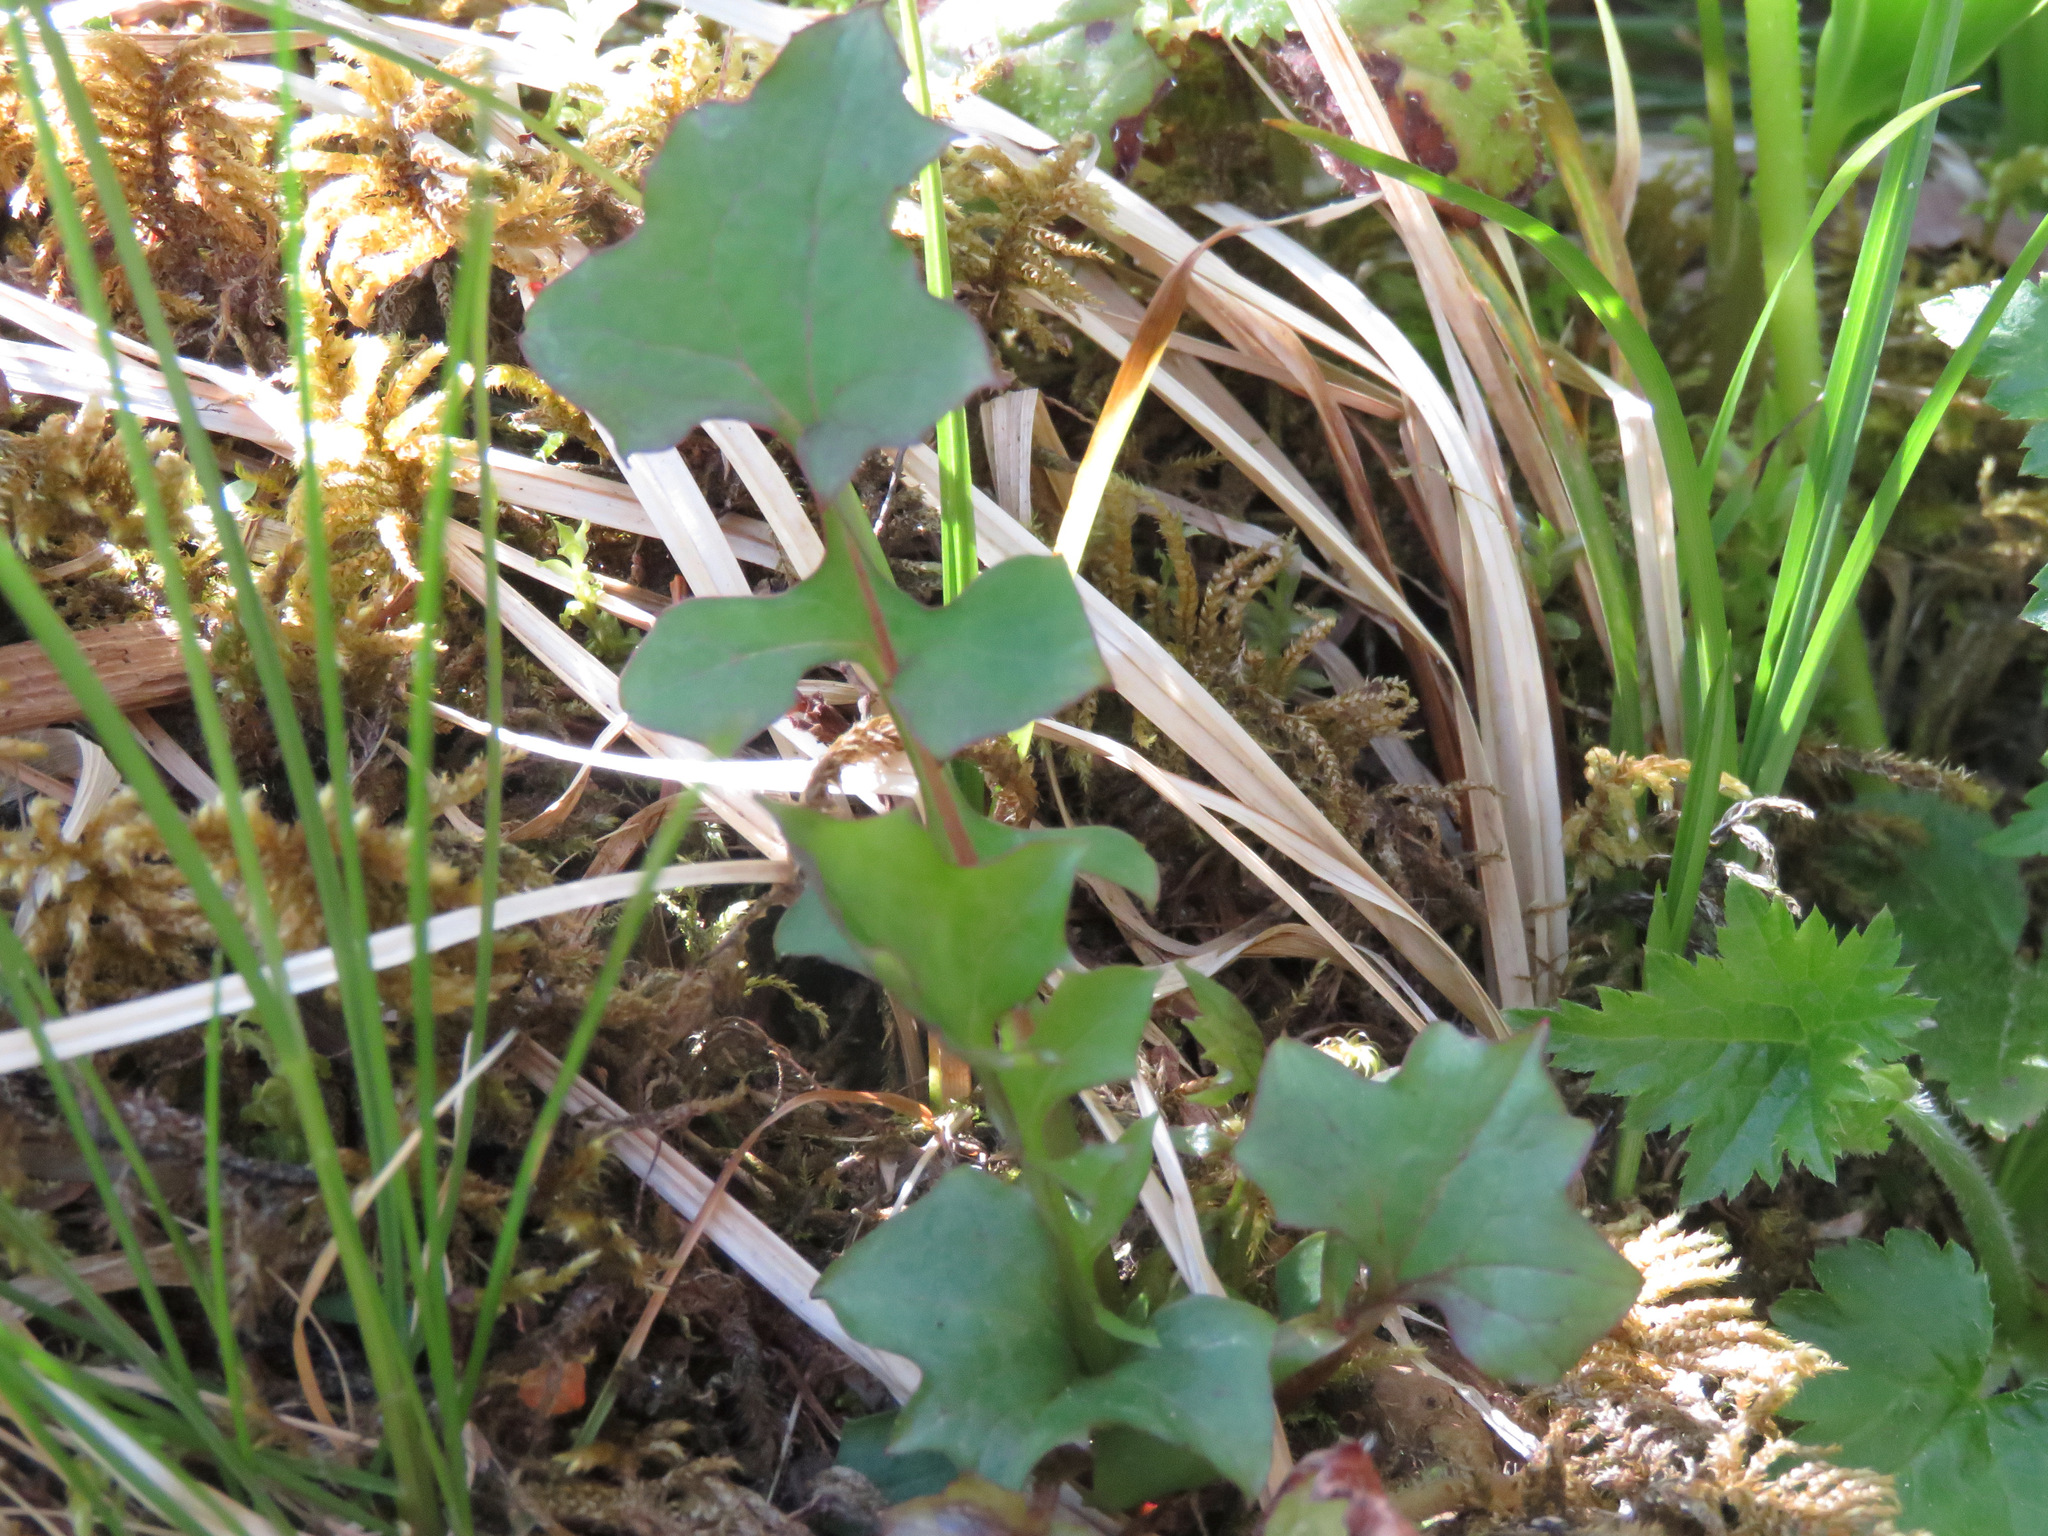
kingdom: Plantae
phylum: Tracheophyta
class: Magnoliopsida
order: Asterales
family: Asteraceae
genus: Mycelis
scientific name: Mycelis muralis
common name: Wall lettuce
